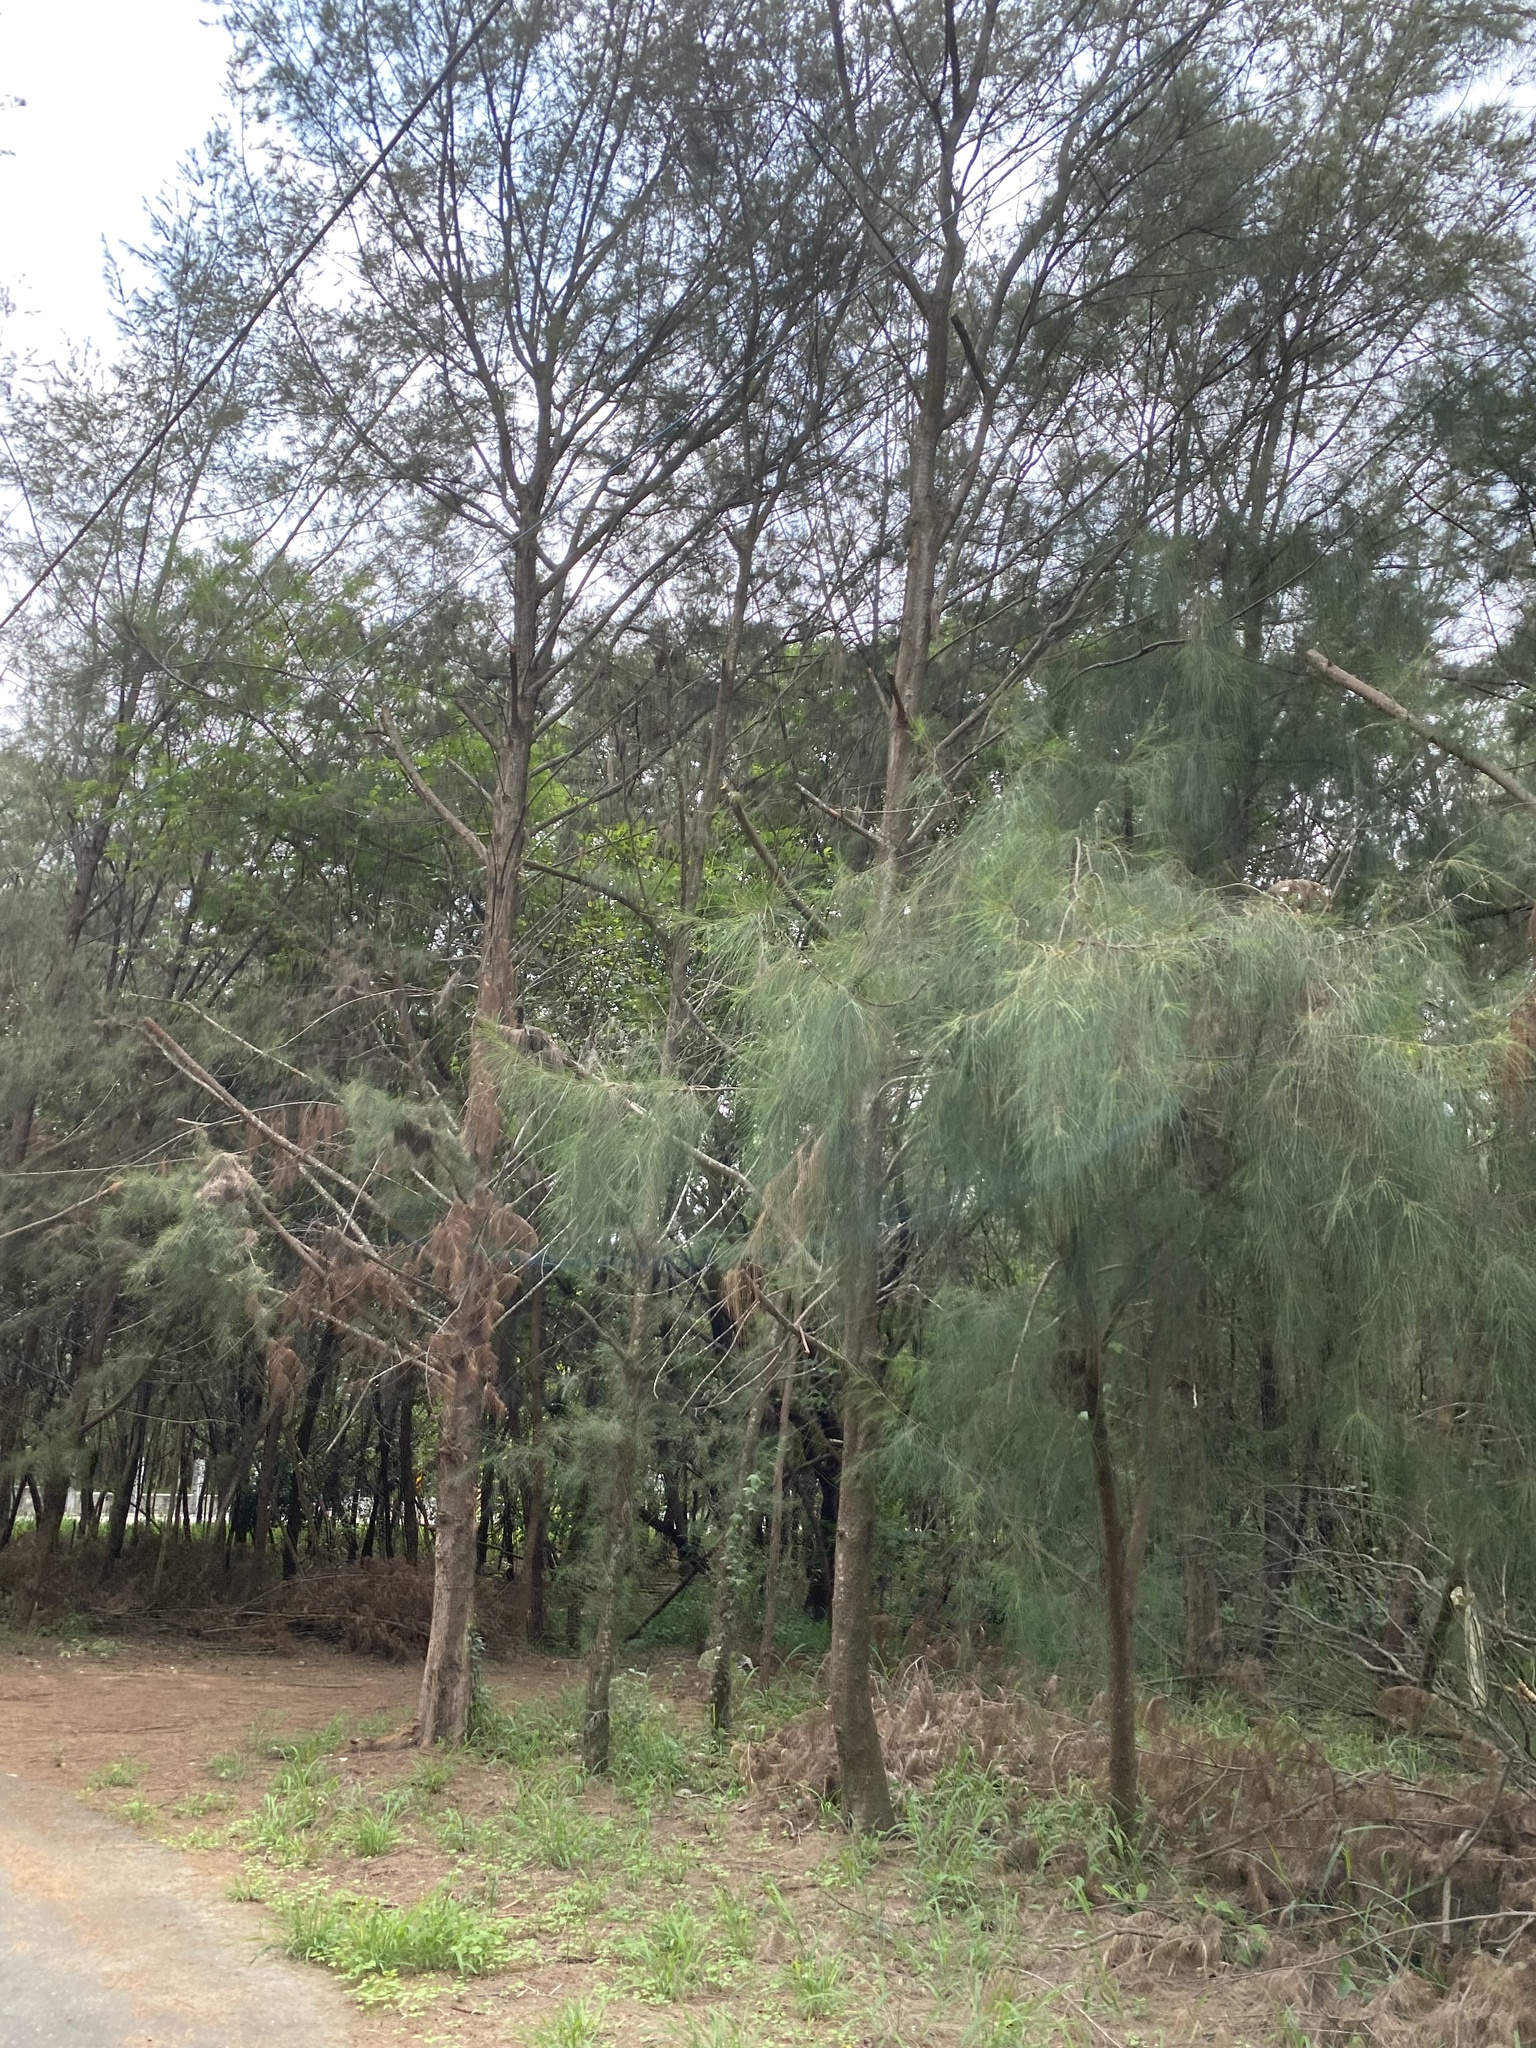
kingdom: Plantae
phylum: Tracheophyta
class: Magnoliopsida
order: Fagales
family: Casuarinaceae
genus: Casuarina
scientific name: Casuarina equisetifolia
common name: Beach sheoak
